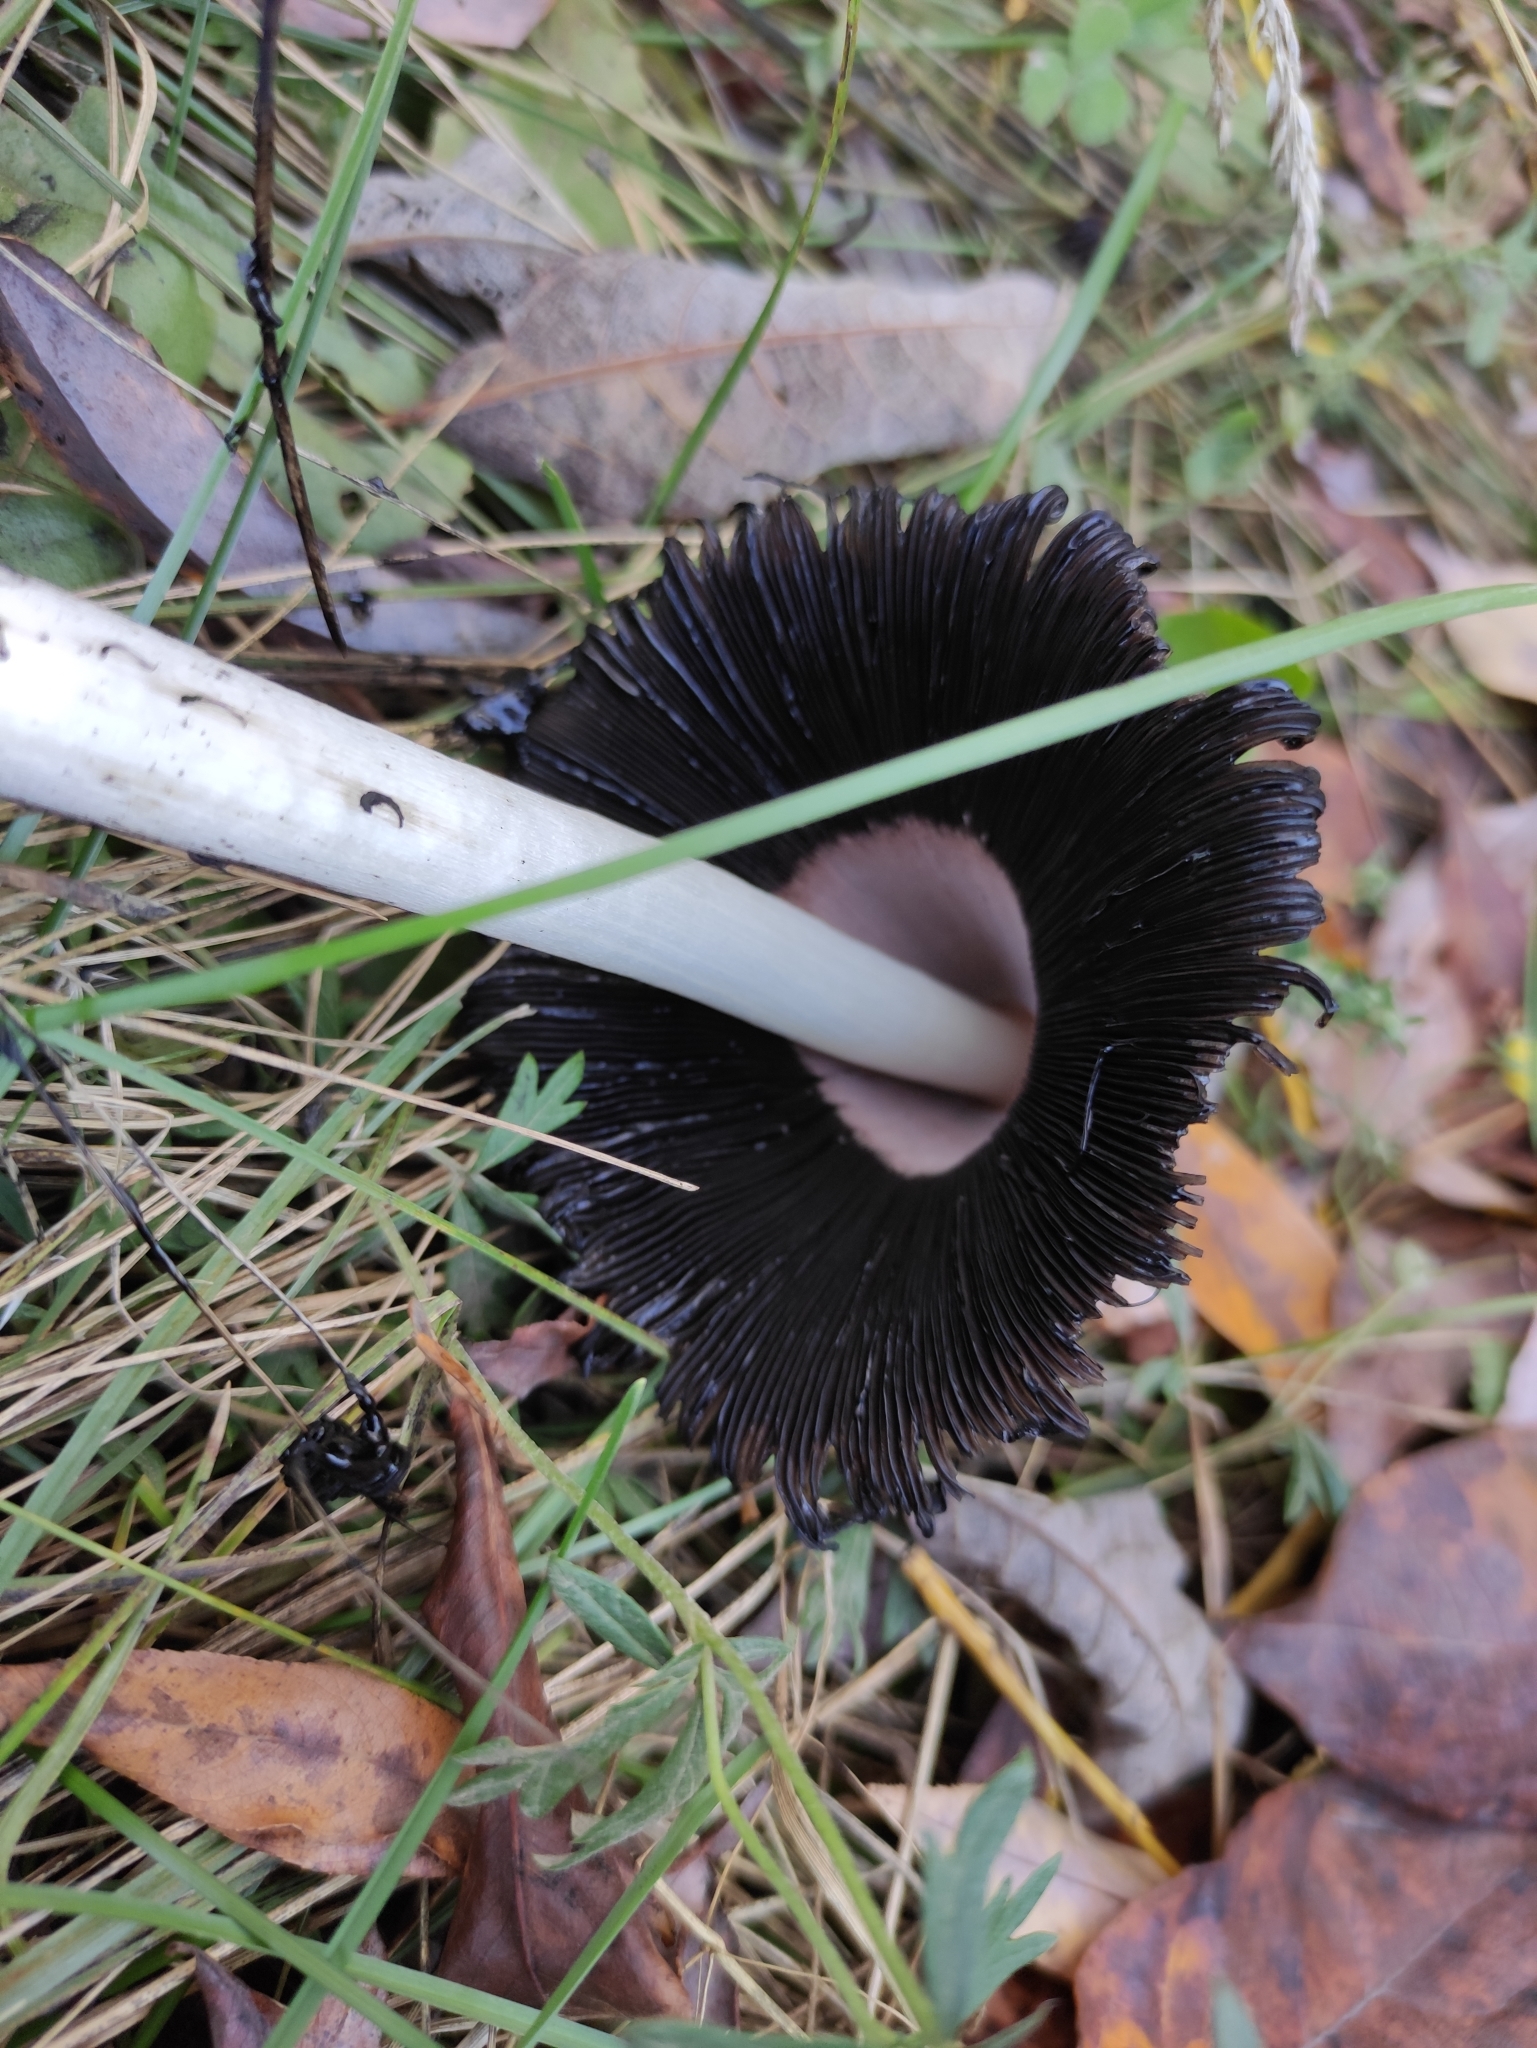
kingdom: Fungi
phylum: Basidiomycota
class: Agaricomycetes
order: Agaricales
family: Agaricaceae
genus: Coprinus
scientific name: Coprinus comatus
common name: Lawyer's wig
